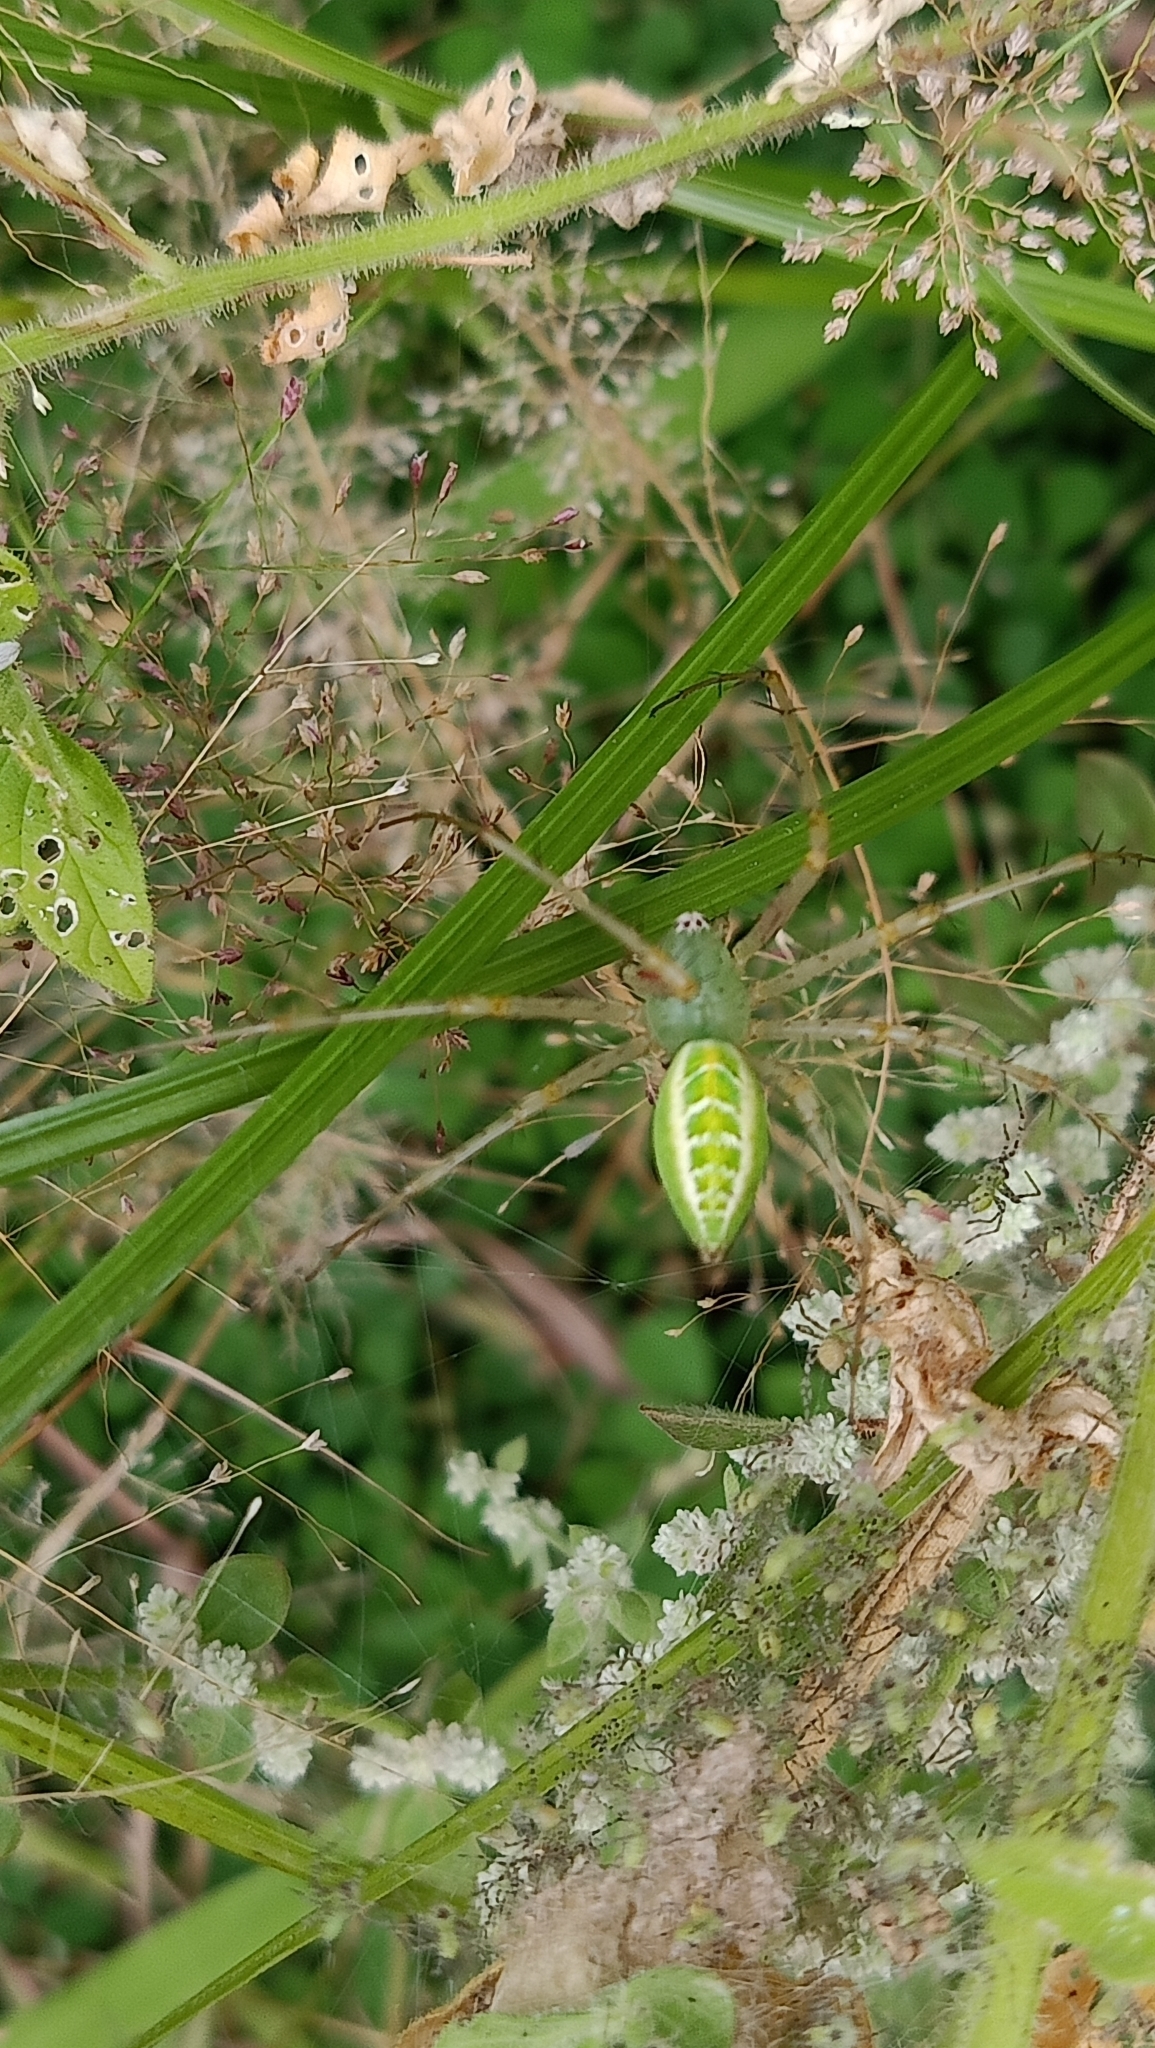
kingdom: Animalia
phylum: Arthropoda
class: Arachnida
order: Araneae
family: Oxyopidae
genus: Peucetia
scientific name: Peucetia viridana
